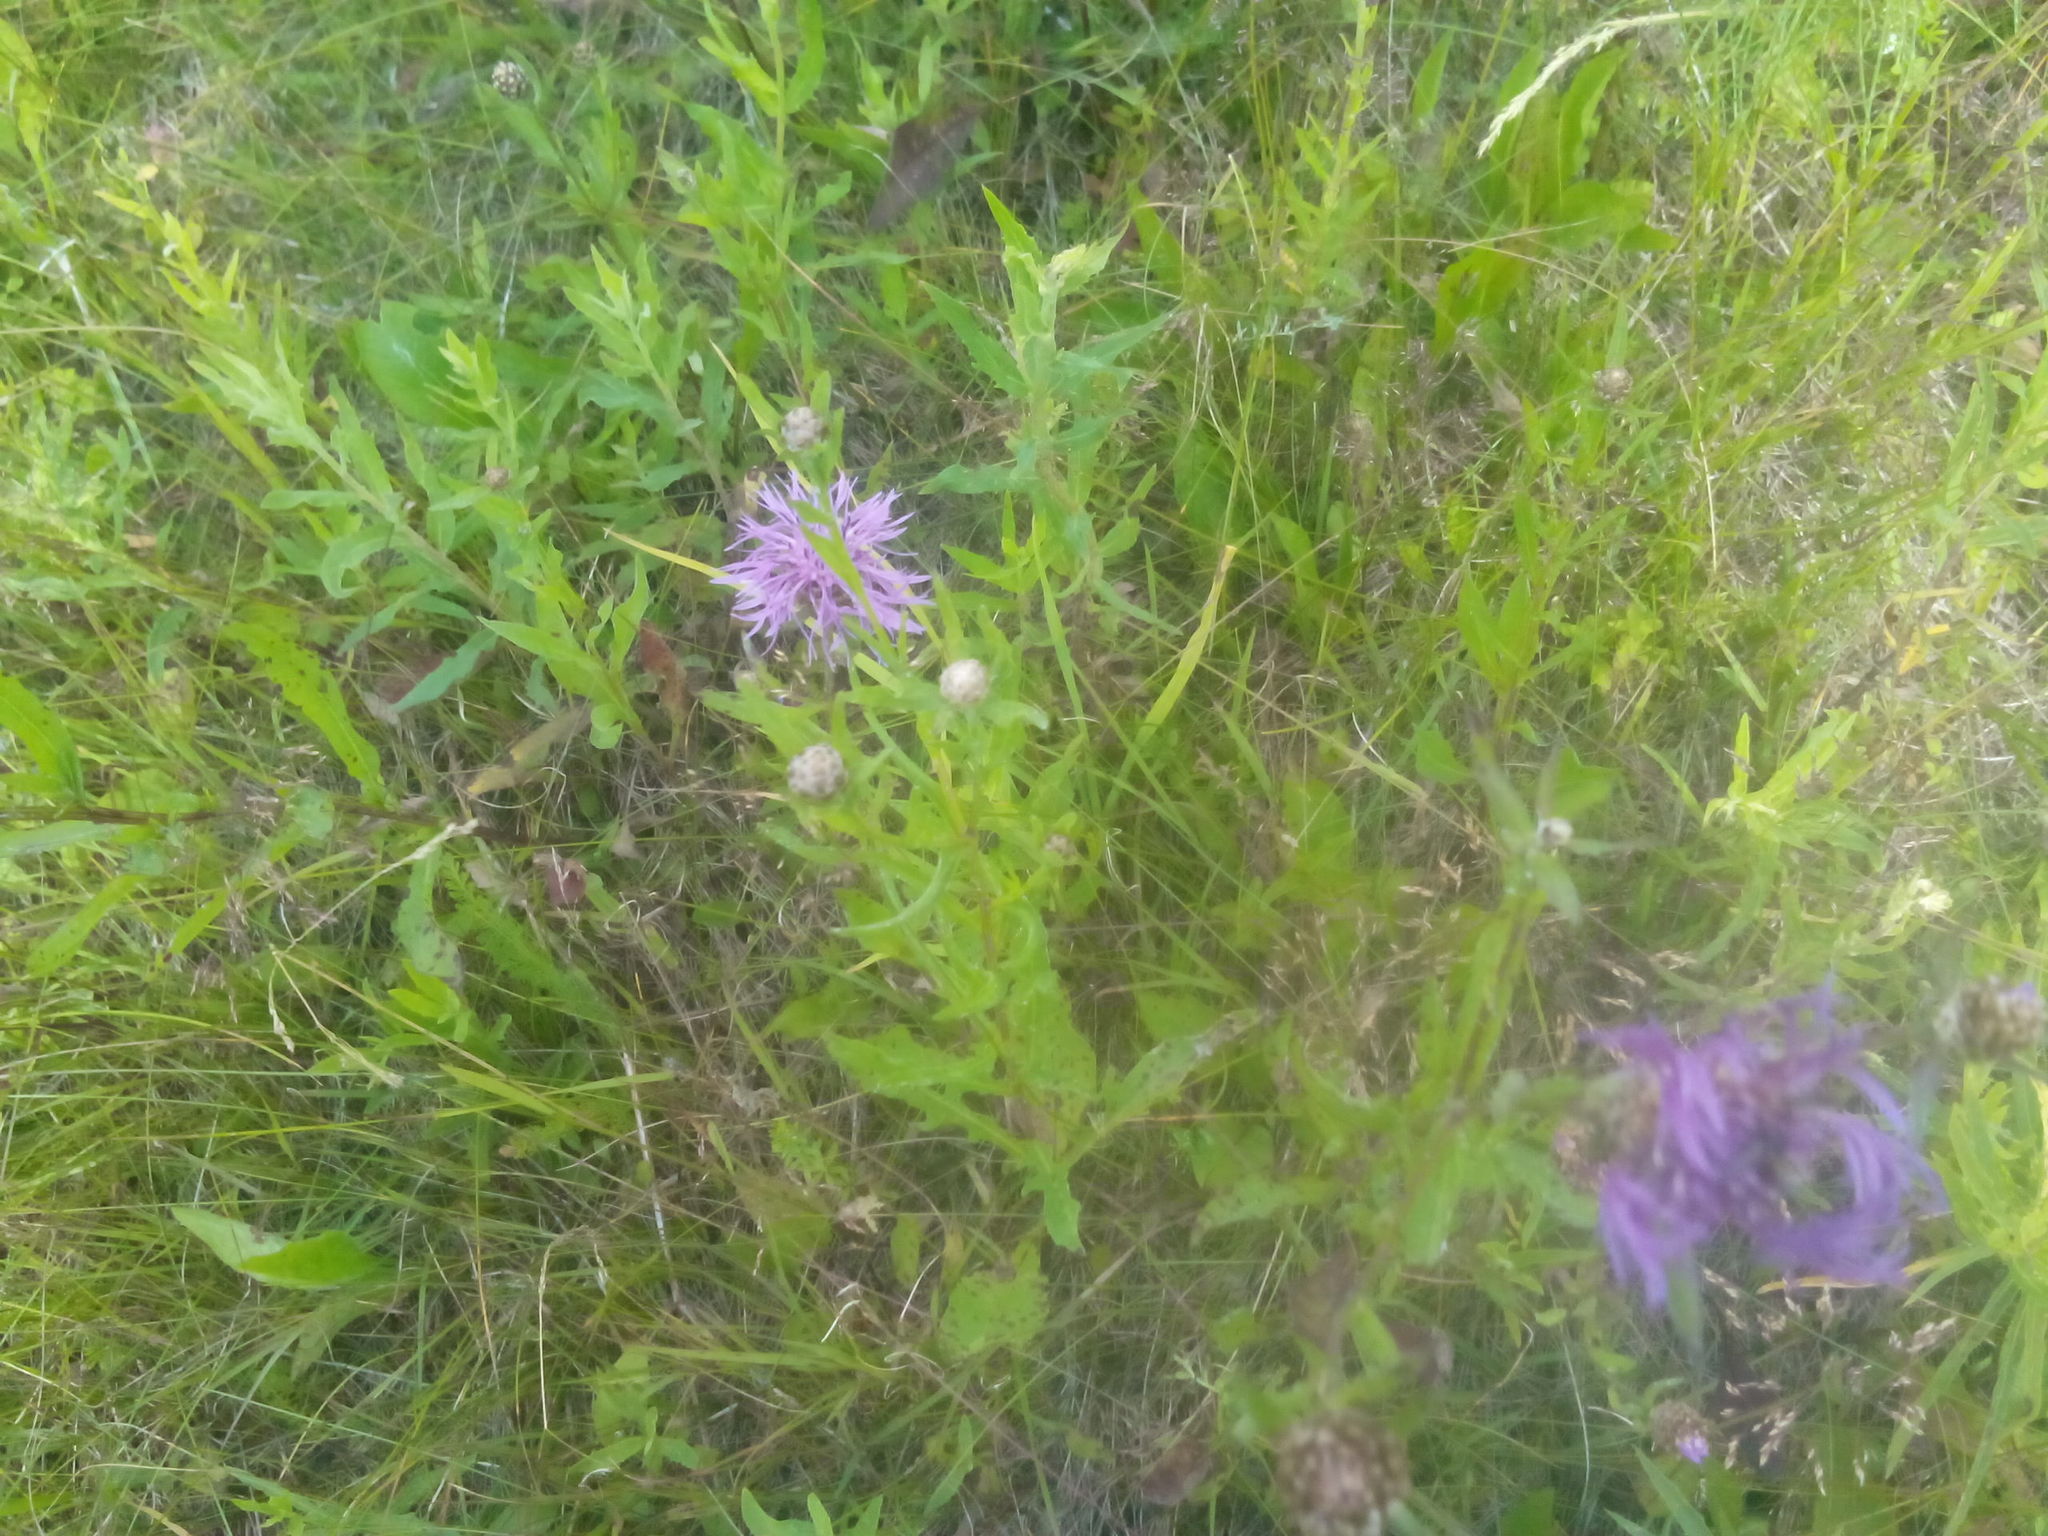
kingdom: Plantae
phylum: Tracheophyta
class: Magnoliopsida
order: Asterales
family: Asteraceae
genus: Centaurea
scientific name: Centaurea jacea
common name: Brown knapweed
